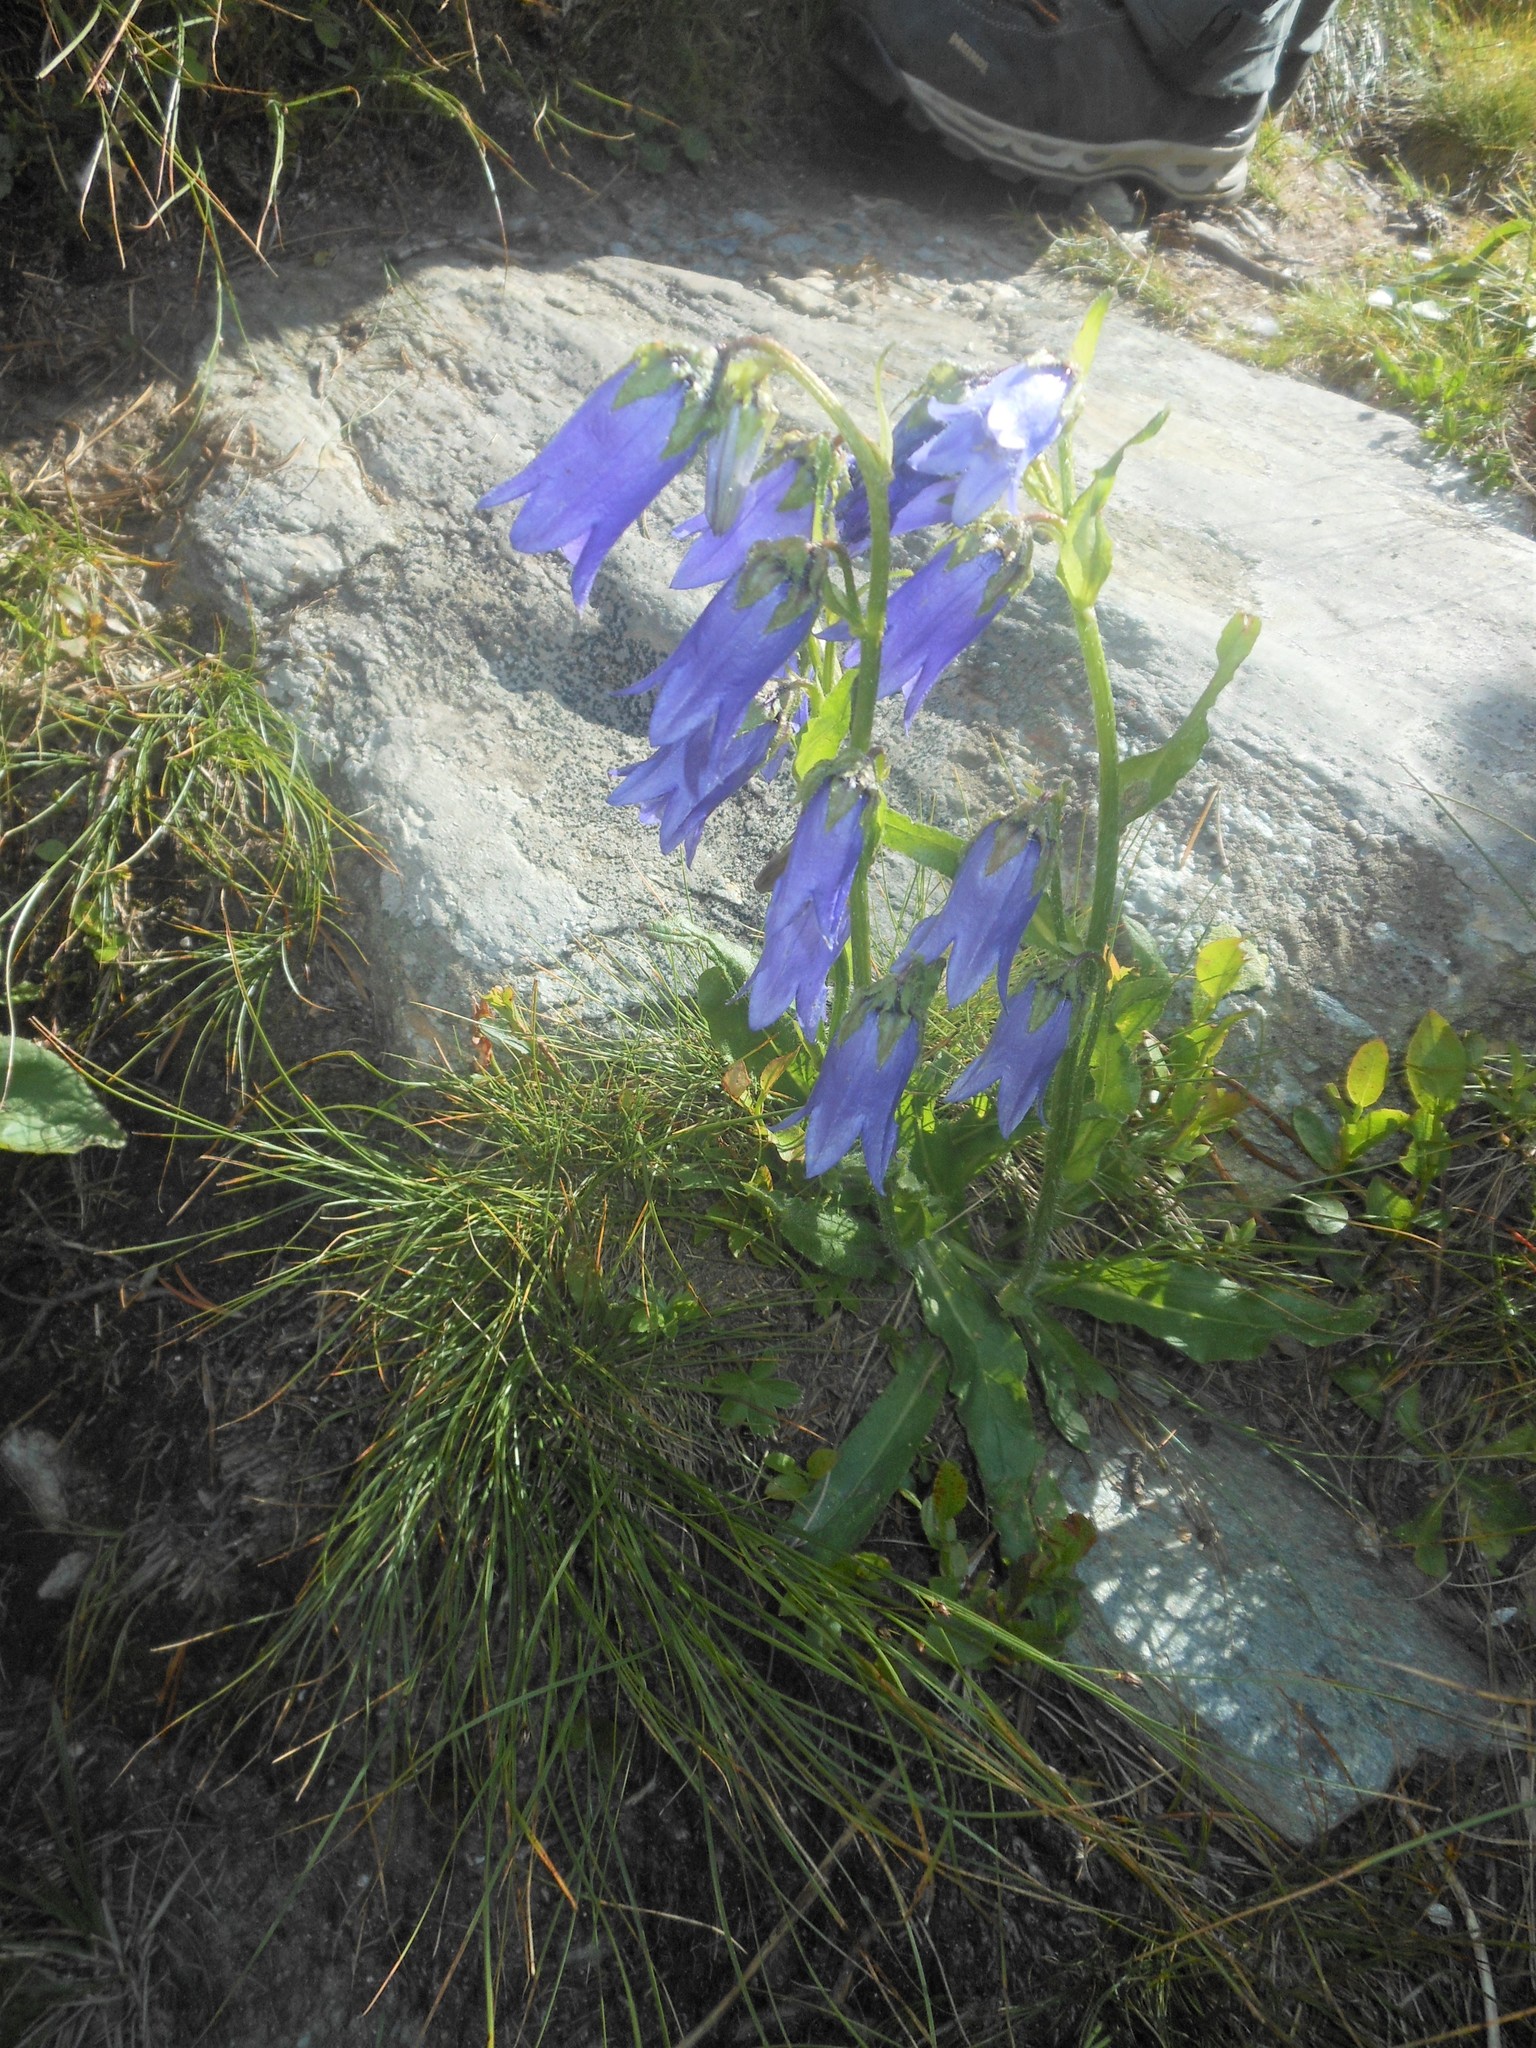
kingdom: Plantae
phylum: Tracheophyta
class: Magnoliopsida
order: Asterales
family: Campanulaceae
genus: Campanula
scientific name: Campanula barbata
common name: Bearded bellflower
